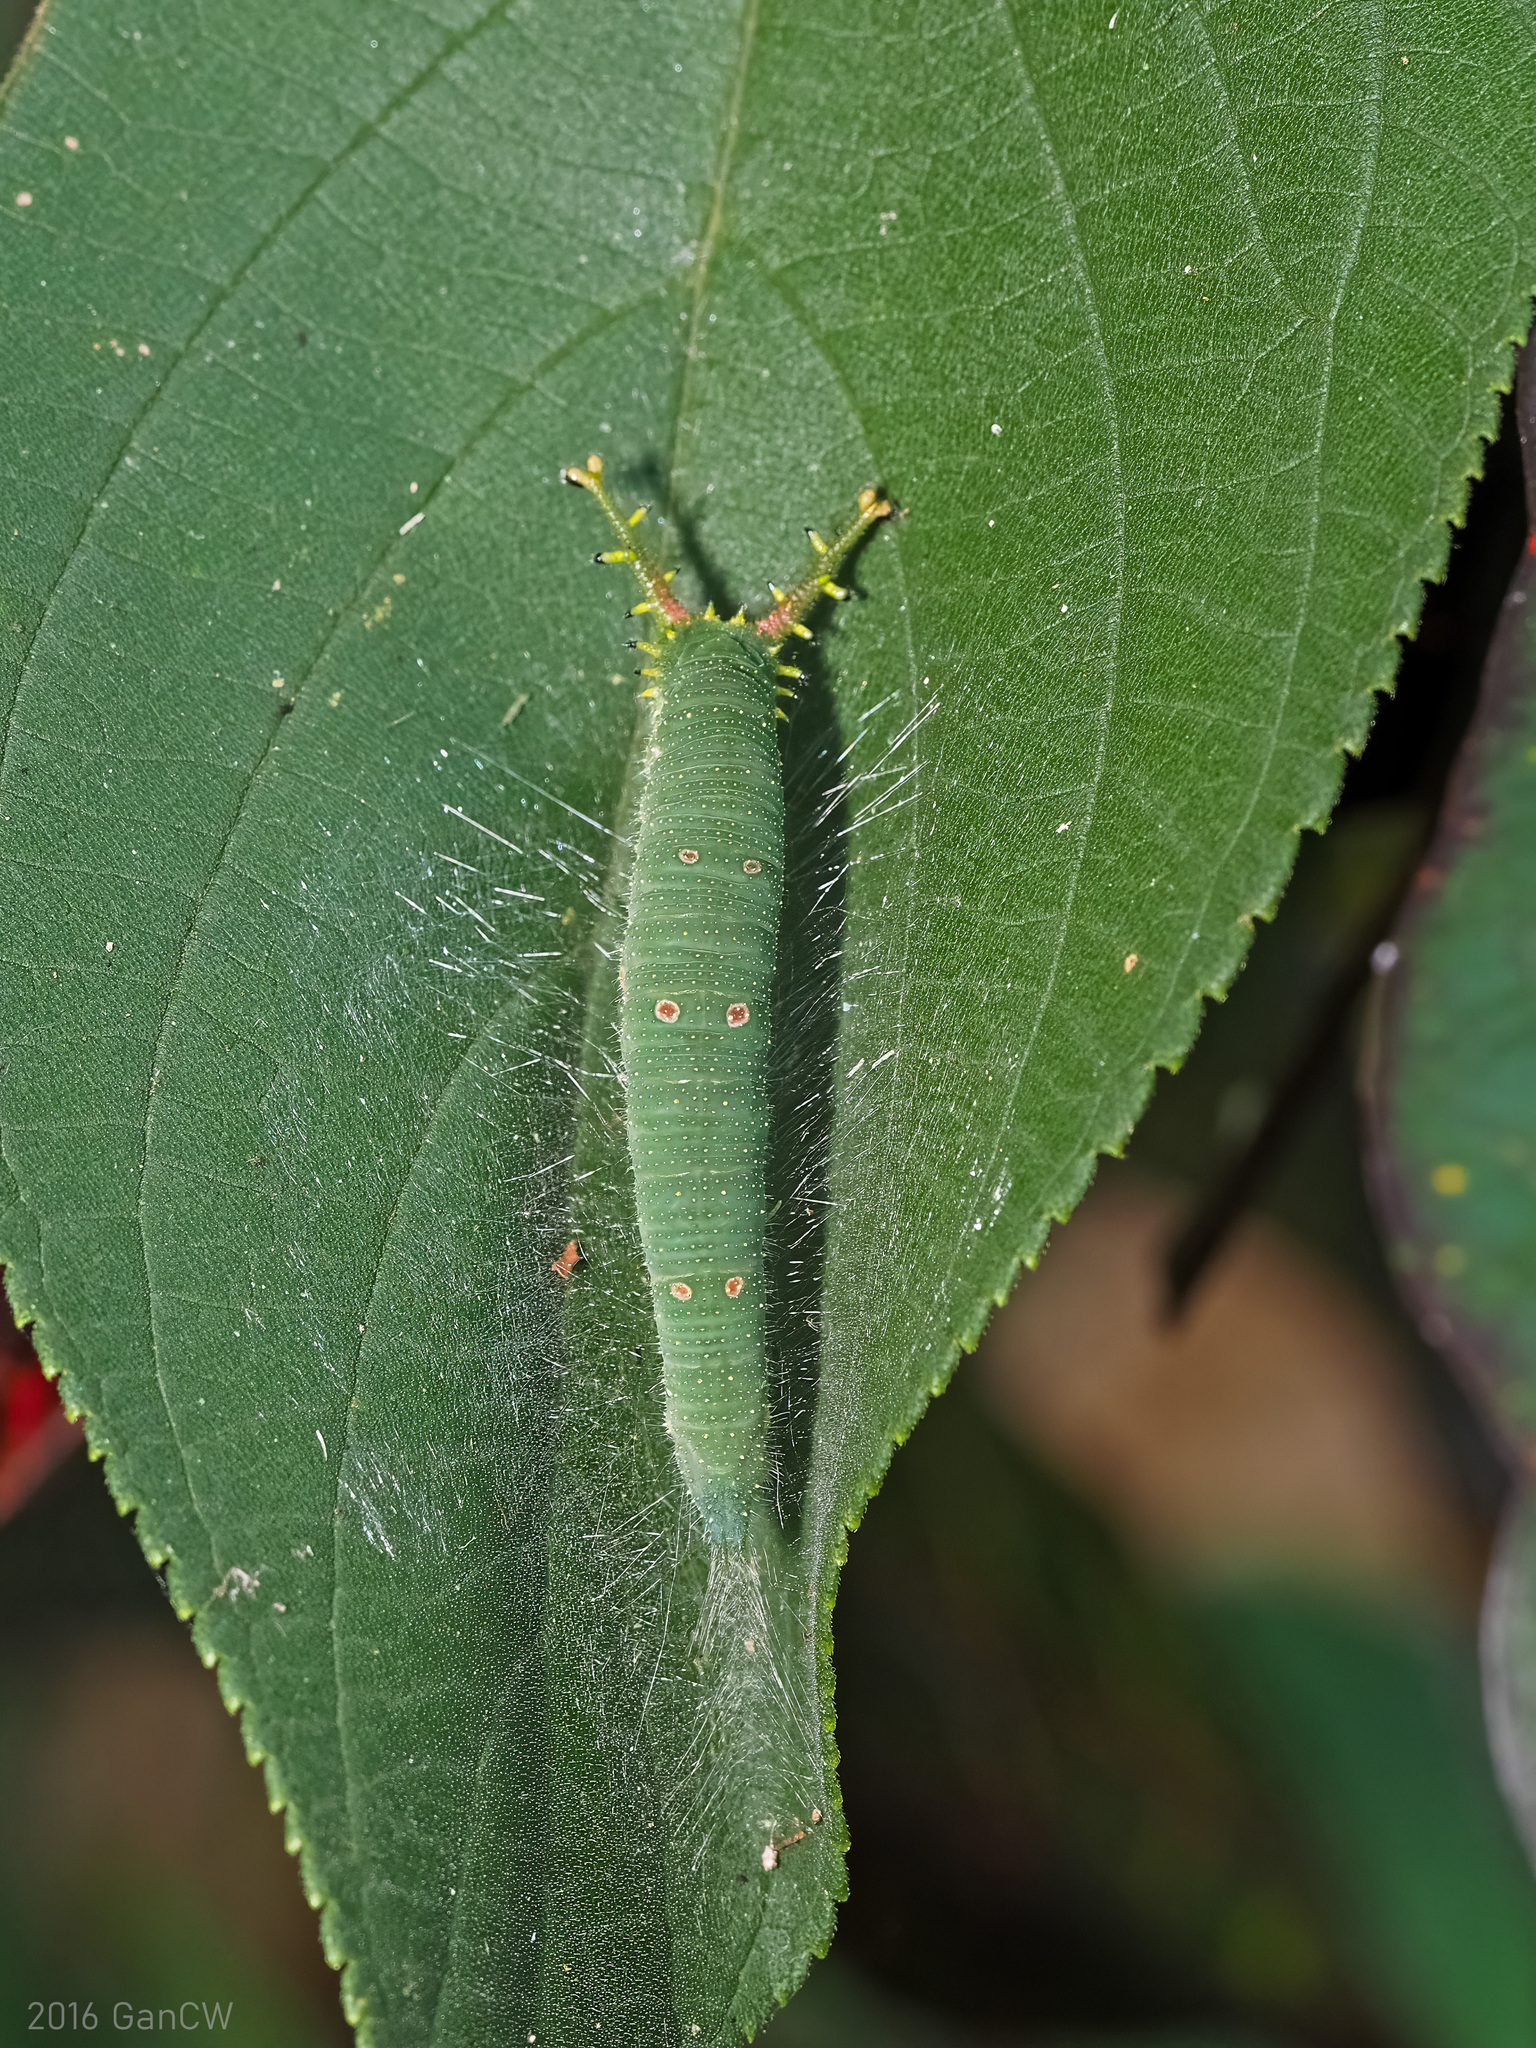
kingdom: Animalia
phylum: Arthropoda
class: Insecta
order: Lepidoptera
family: Nymphalidae
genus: Euripus
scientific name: Euripus nyctelius
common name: Courtesan
